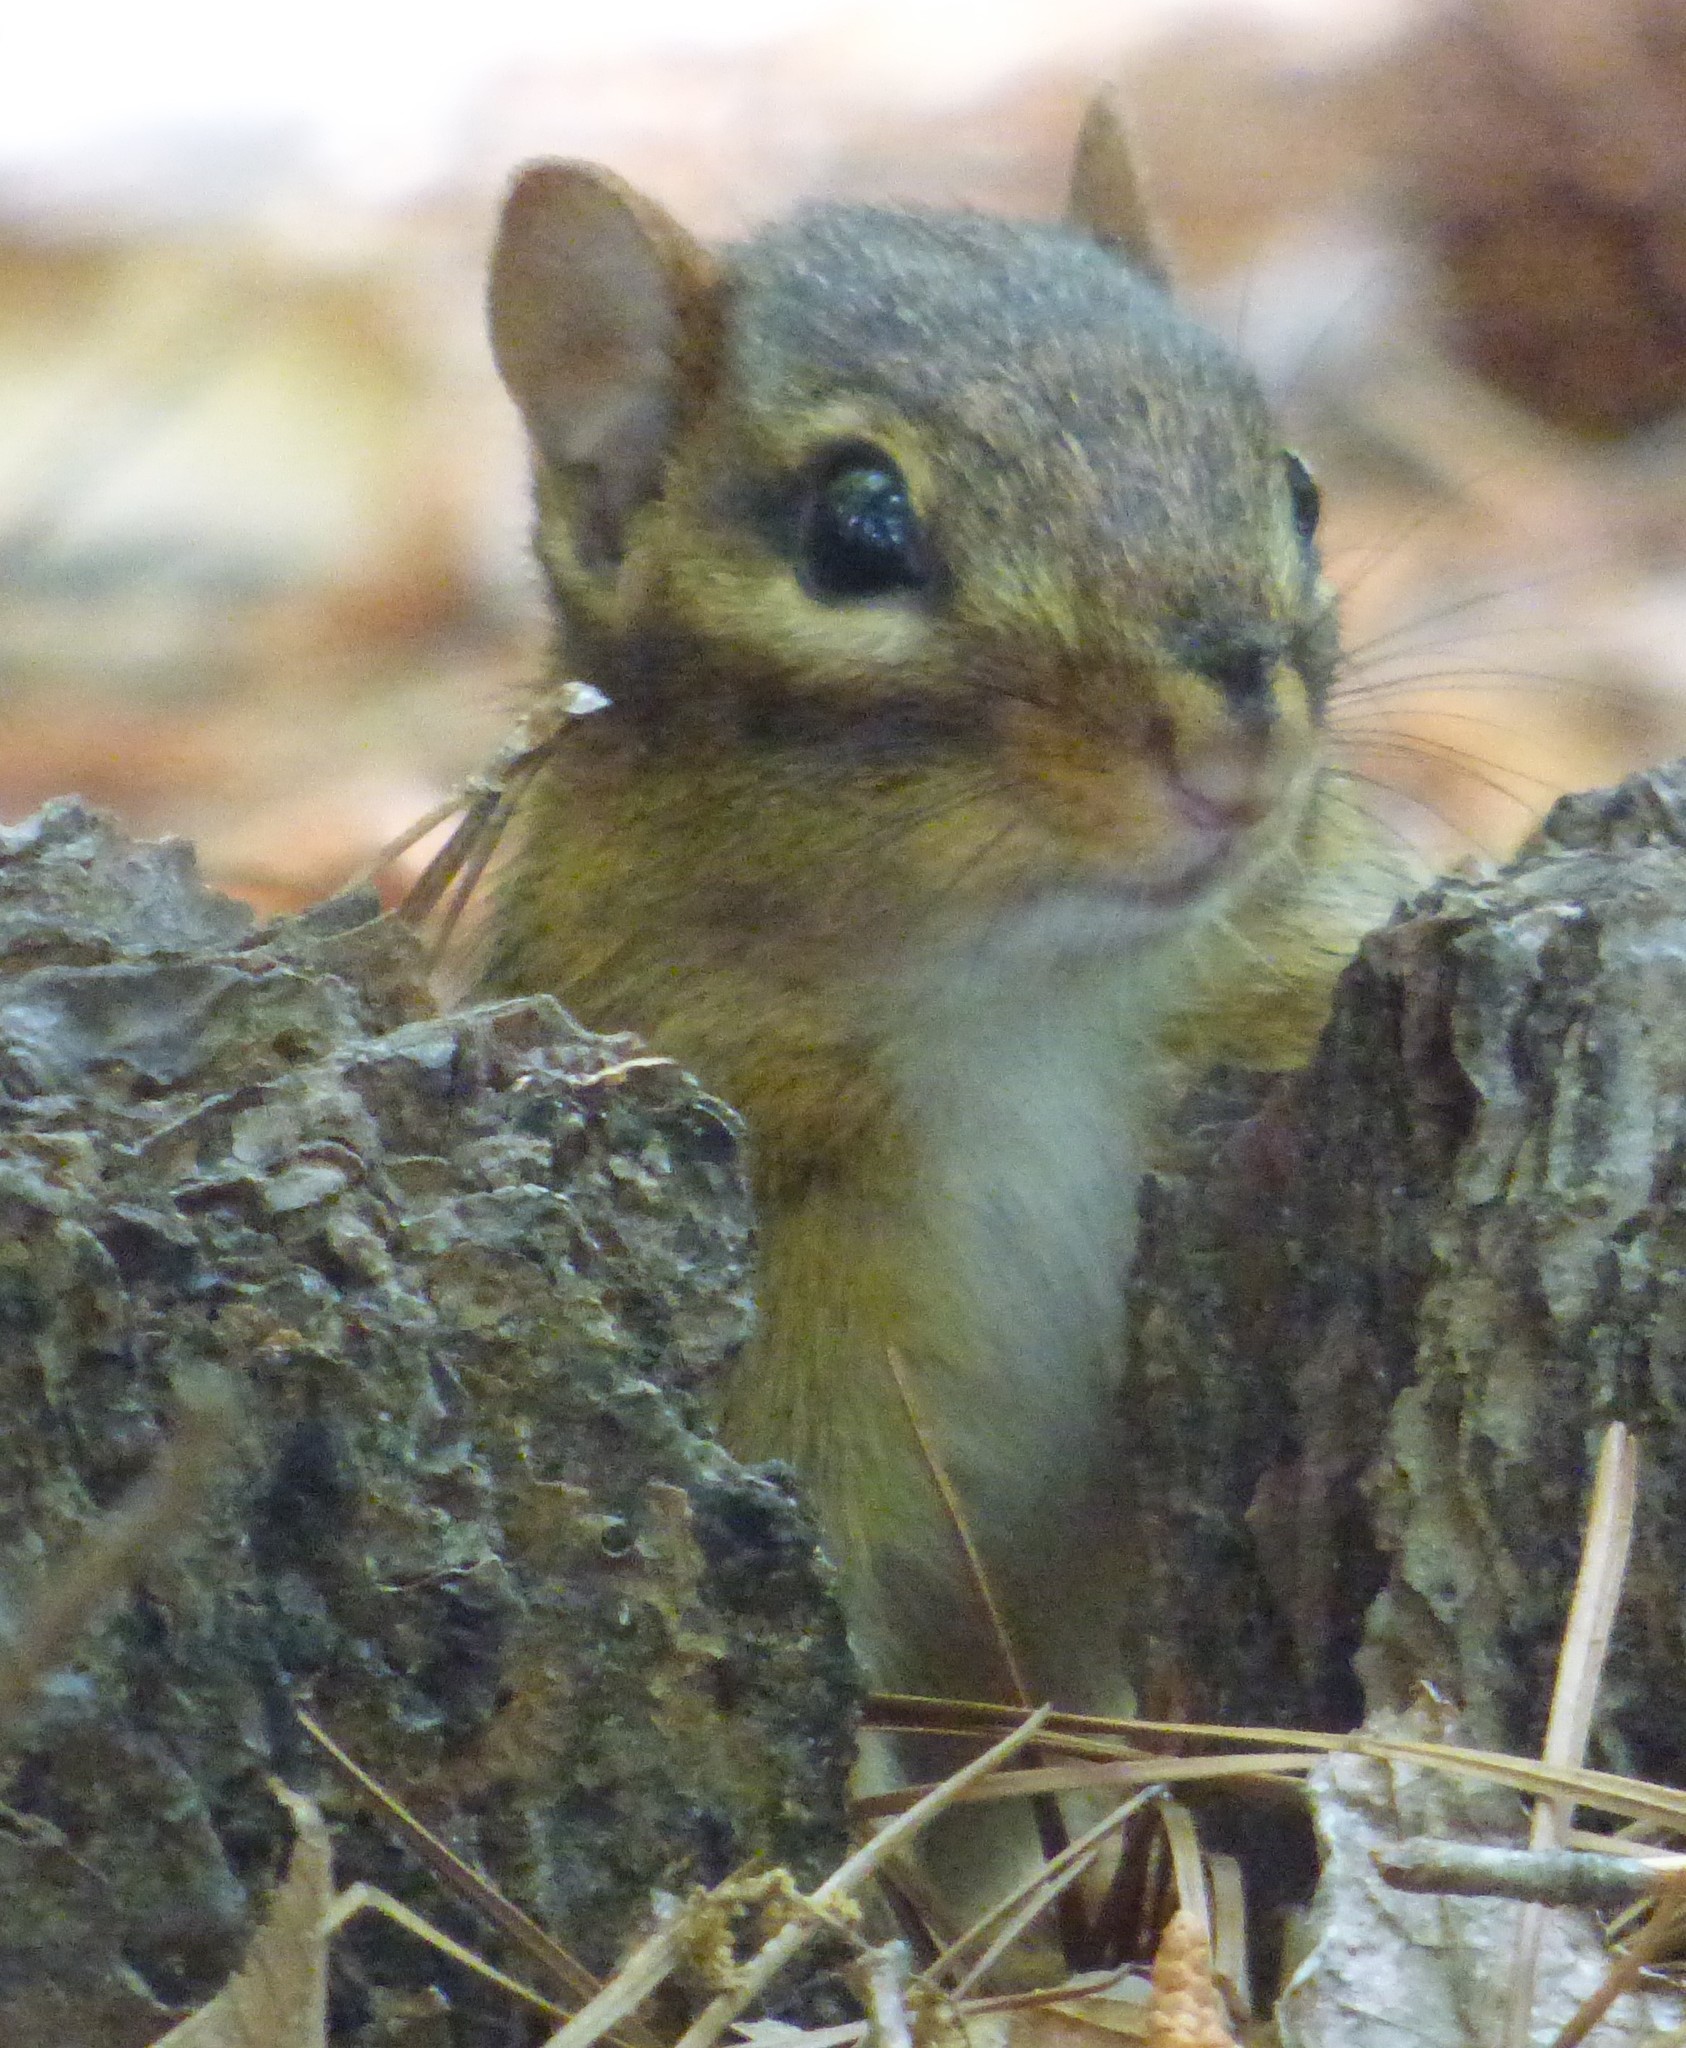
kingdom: Animalia
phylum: Chordata
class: Mammalia
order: Rodentia
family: Sciuridae
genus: Tamias
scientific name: Tamias striatus
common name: Eastern chipmunk
